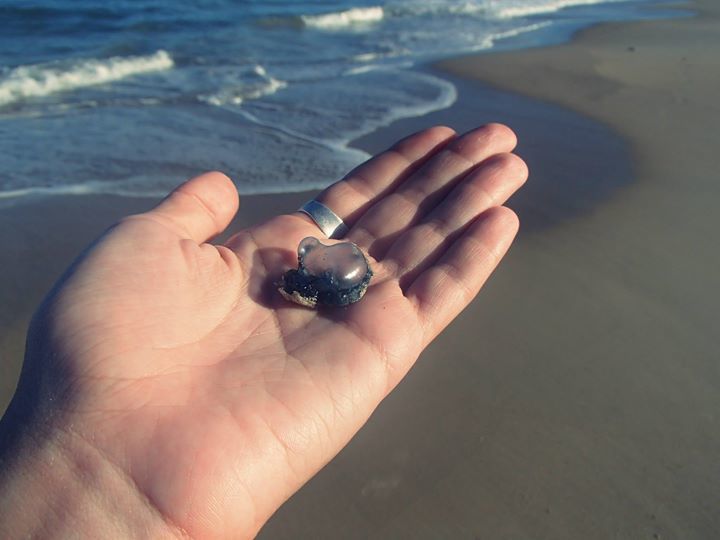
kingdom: Animalia
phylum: Cnidaria
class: Hydrozoa
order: Siphonophorae
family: Physaliidae
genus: Physalia
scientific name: Physalia physalis
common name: Portuguese man-of-war
